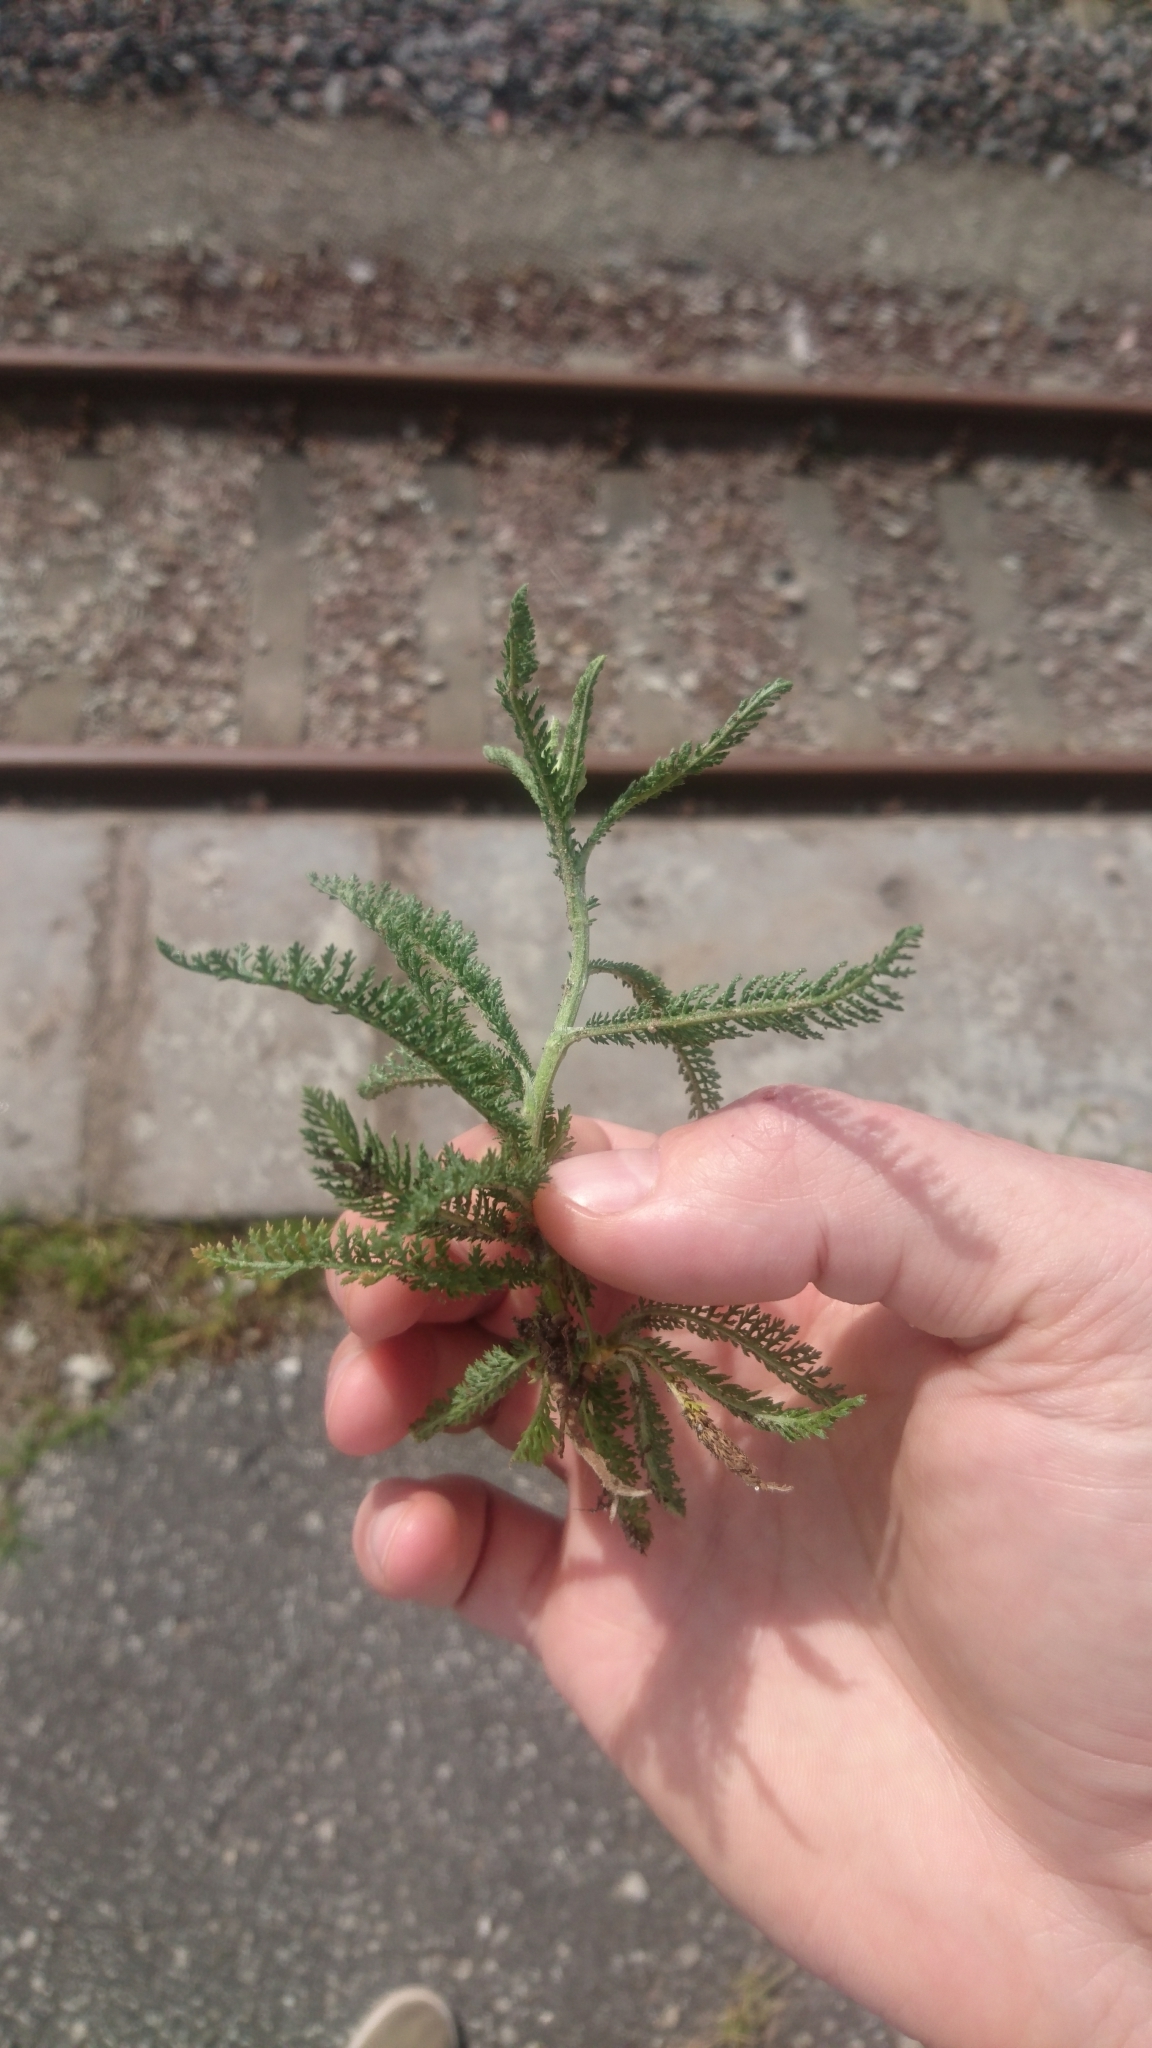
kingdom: Plantae
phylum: Tracheophyta
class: Magnoliopsida
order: Asterales
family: Asteraceae
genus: Achillea
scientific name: Achillea millefolium
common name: Yarrow
